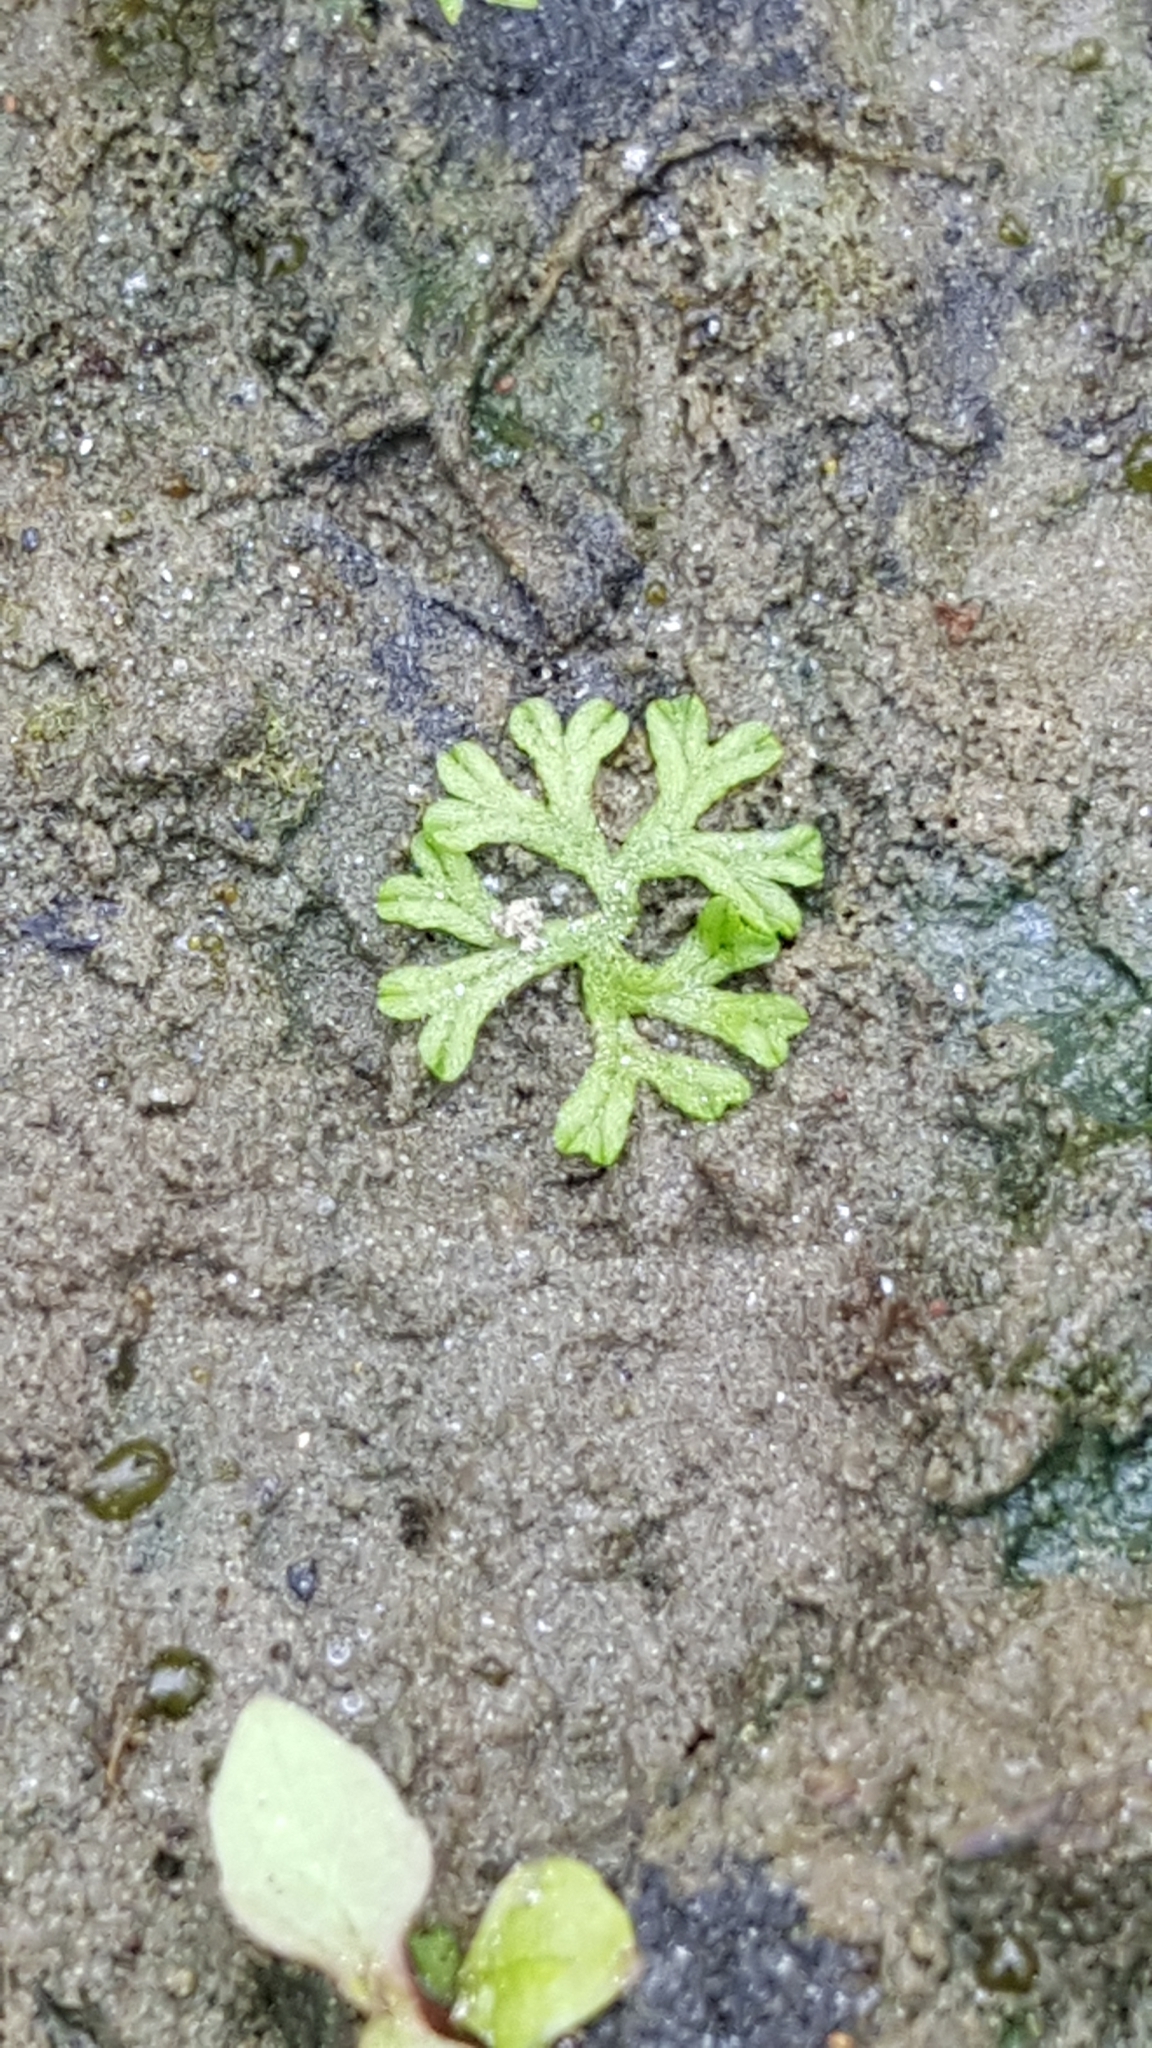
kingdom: Plantae
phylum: Marchantiophyta
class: Marchantiopsida
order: Marchantiales
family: Ricciaceae
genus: Ricciocarpos
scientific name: Ricciocarpos natans
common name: Purple-fringed liverwort
